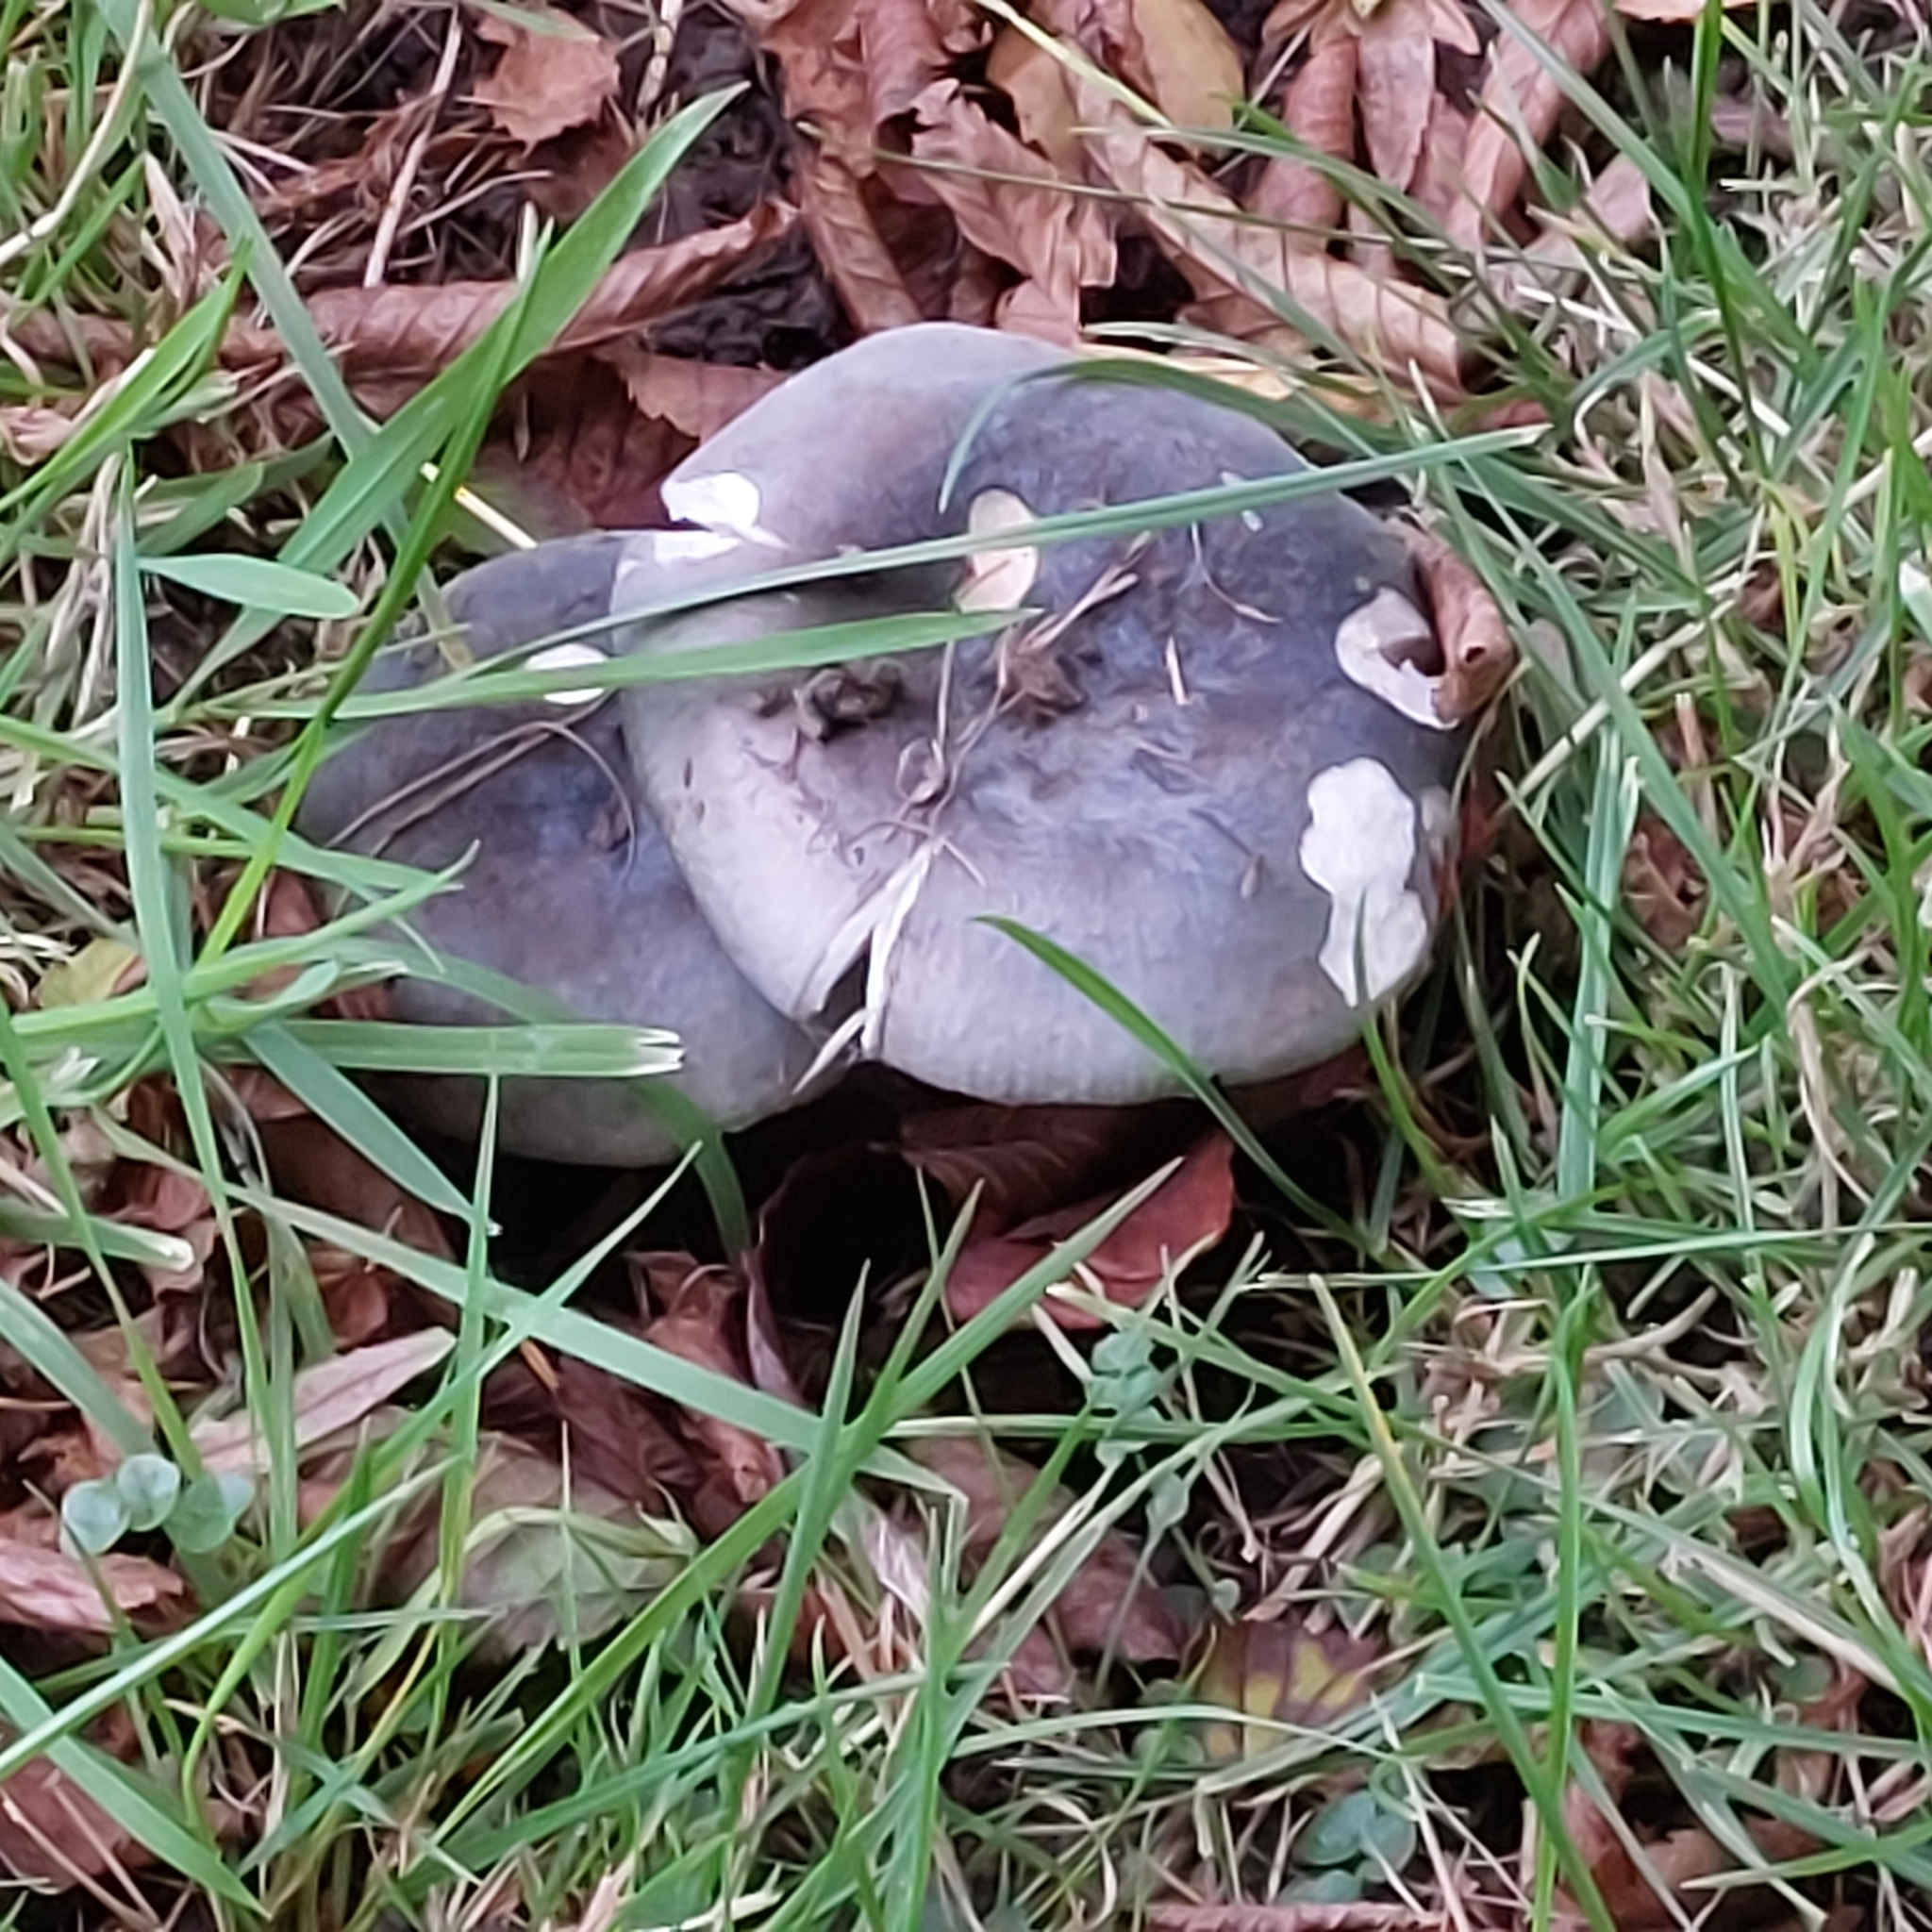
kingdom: Fungi
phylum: Basidiomycota
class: Agaricomycetes
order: Russulales
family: Russulaceae
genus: Russula
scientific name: Russula cyanoxantha
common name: Charcoal burner
